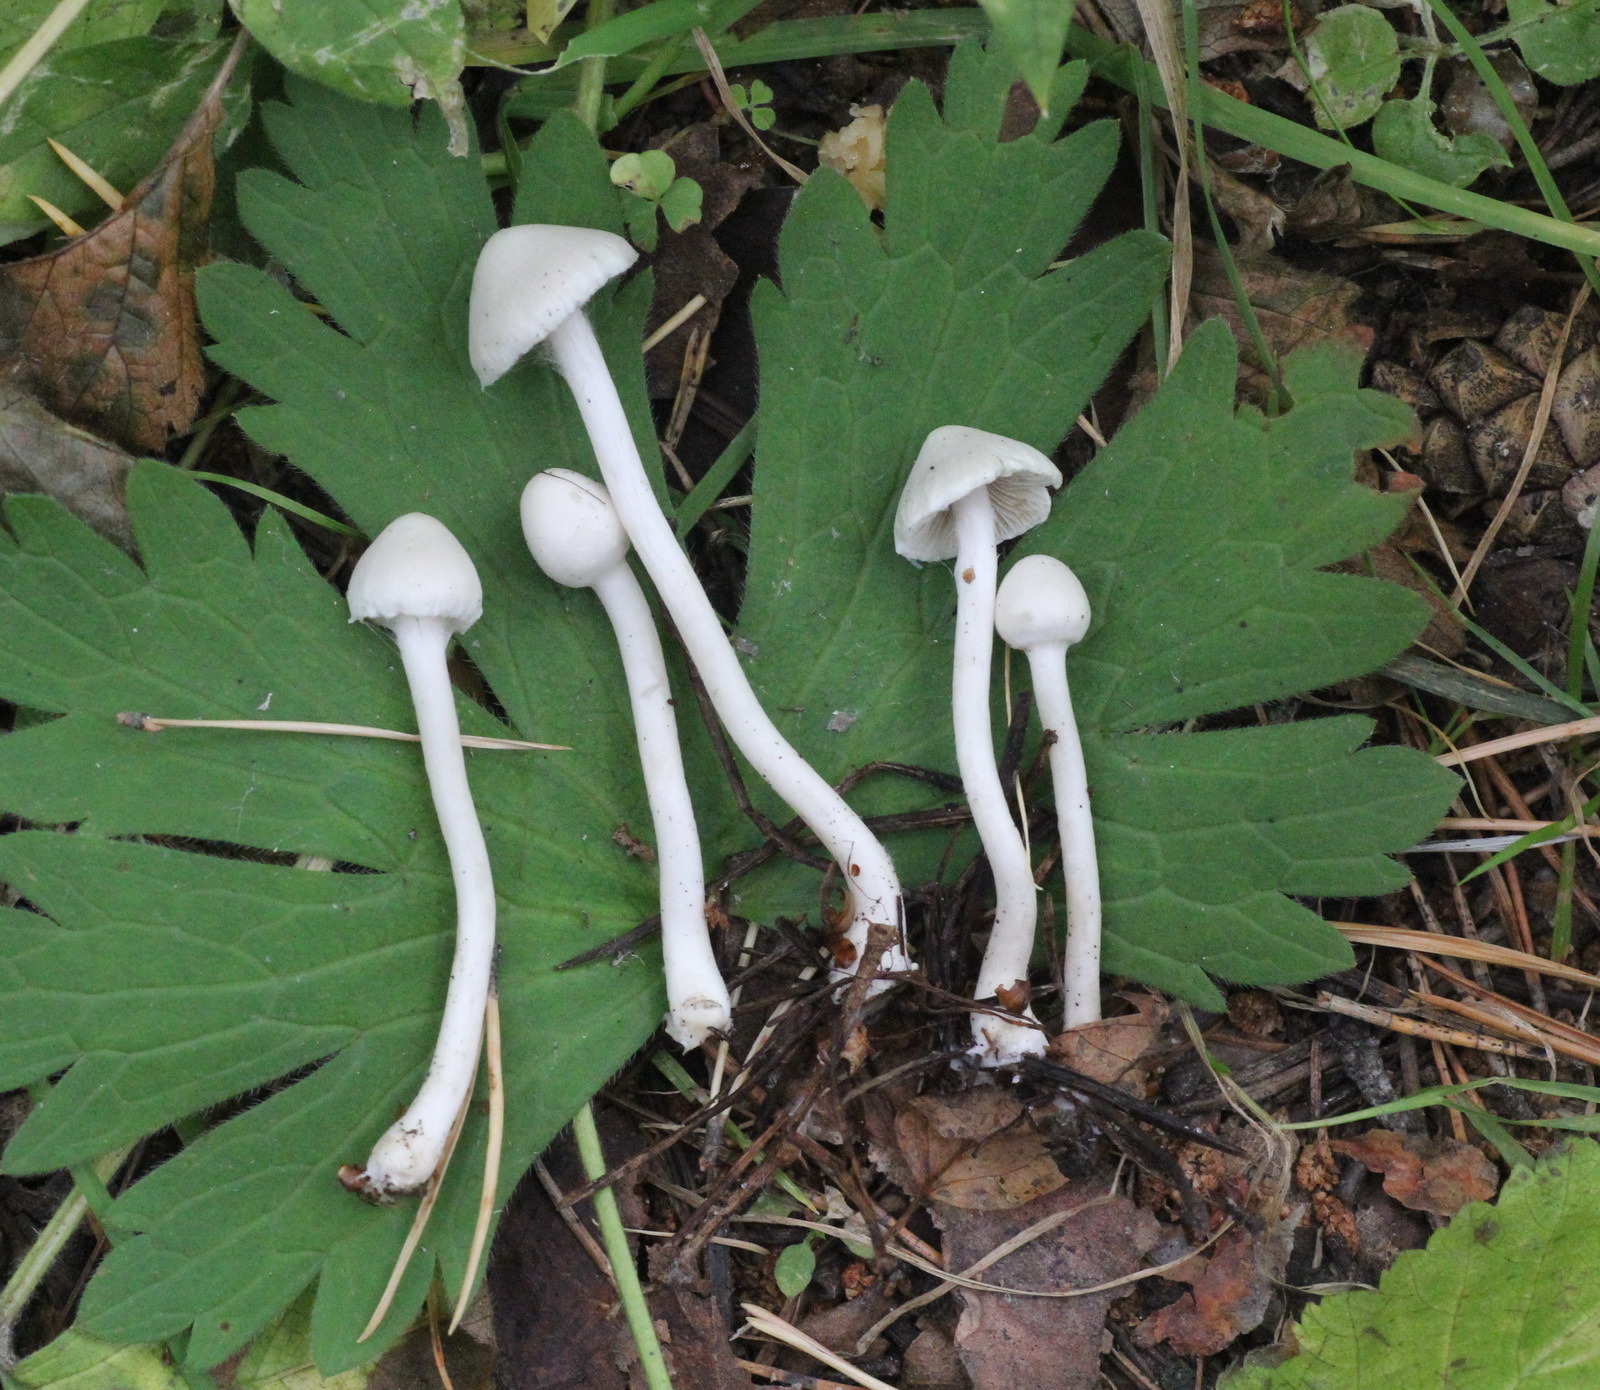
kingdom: Fungi
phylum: Basidiomycota
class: Agaricomycetes
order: Agaricales
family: Inocybaceae
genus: Inocybe
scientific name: Inocybe geophylla
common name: White fibrecap
